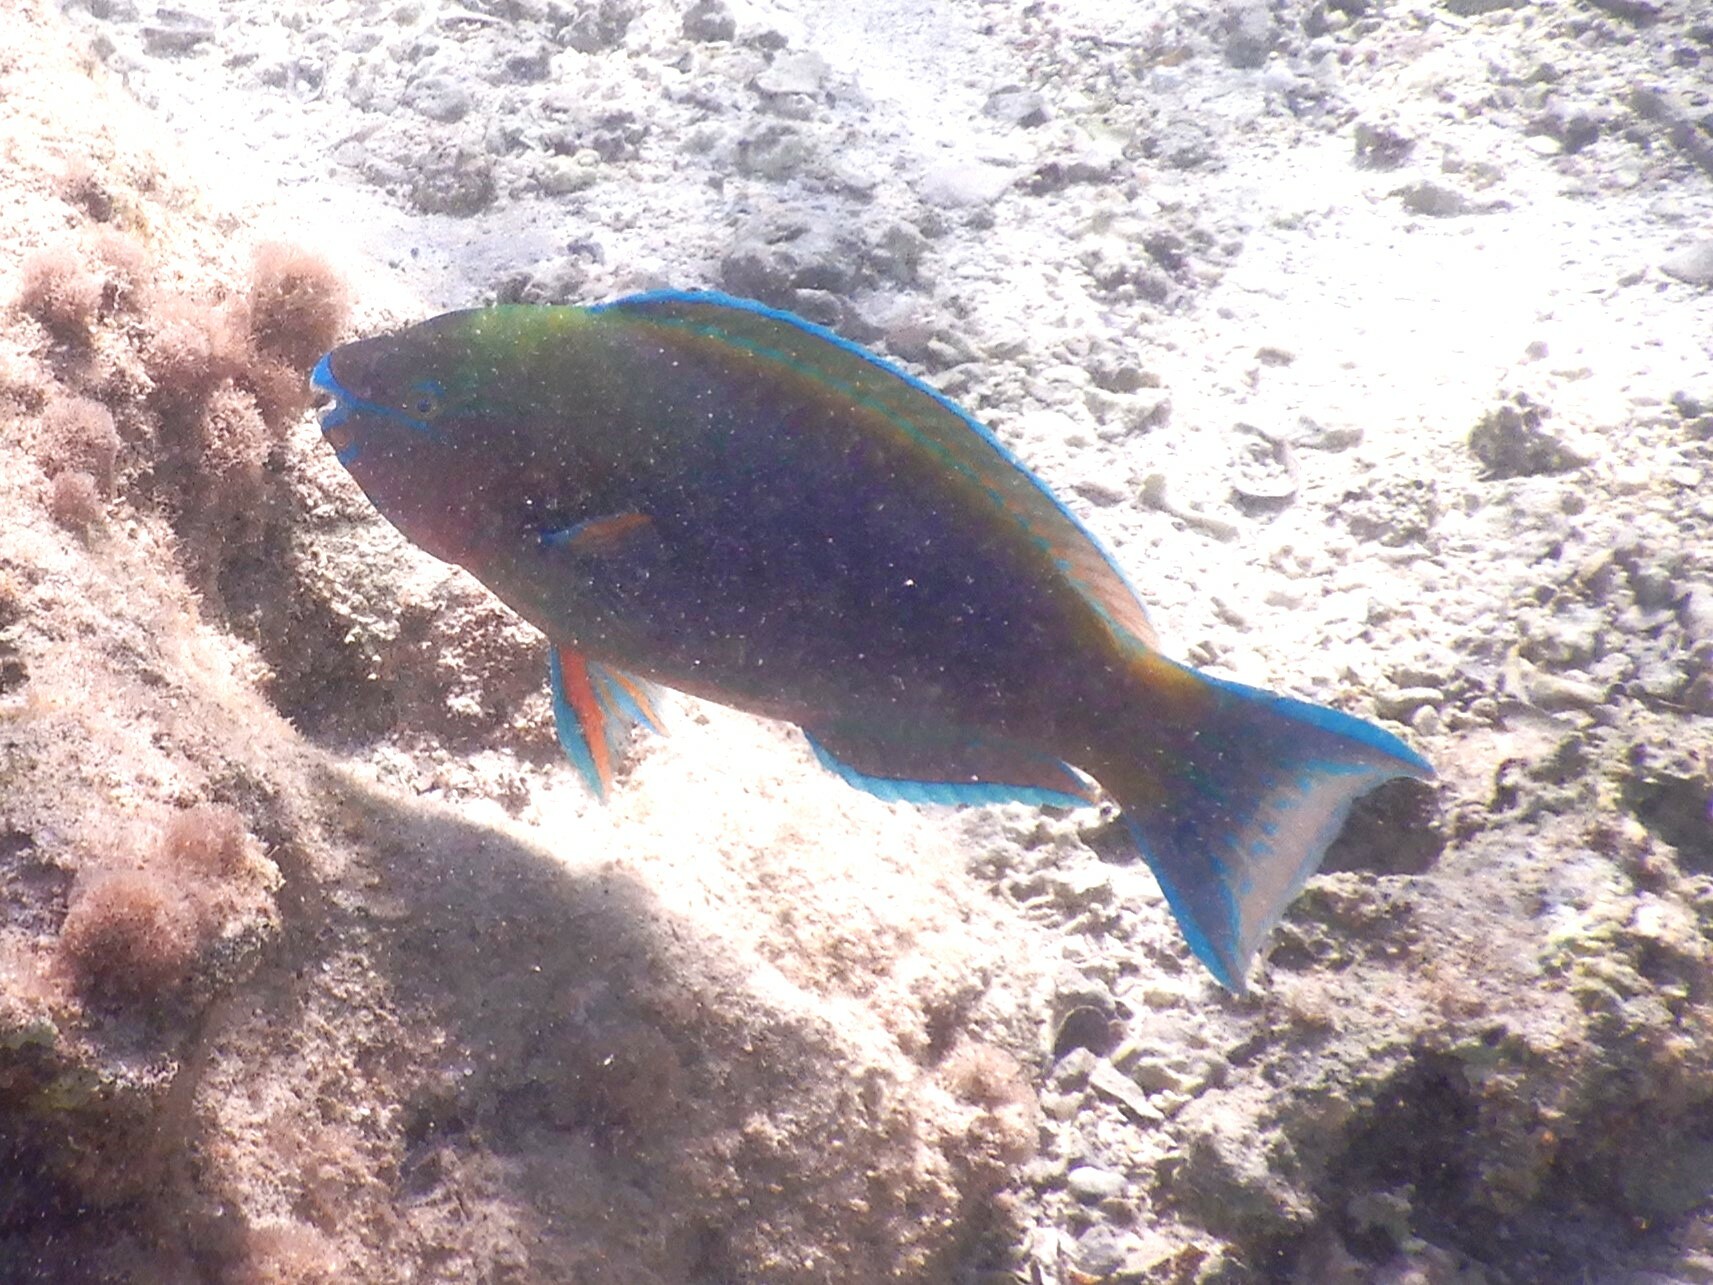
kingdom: Animalia
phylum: Chordata
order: Perciformes
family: Scaridae
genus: Scarus
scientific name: Scarus psittacus
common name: Palenose parrotfish
